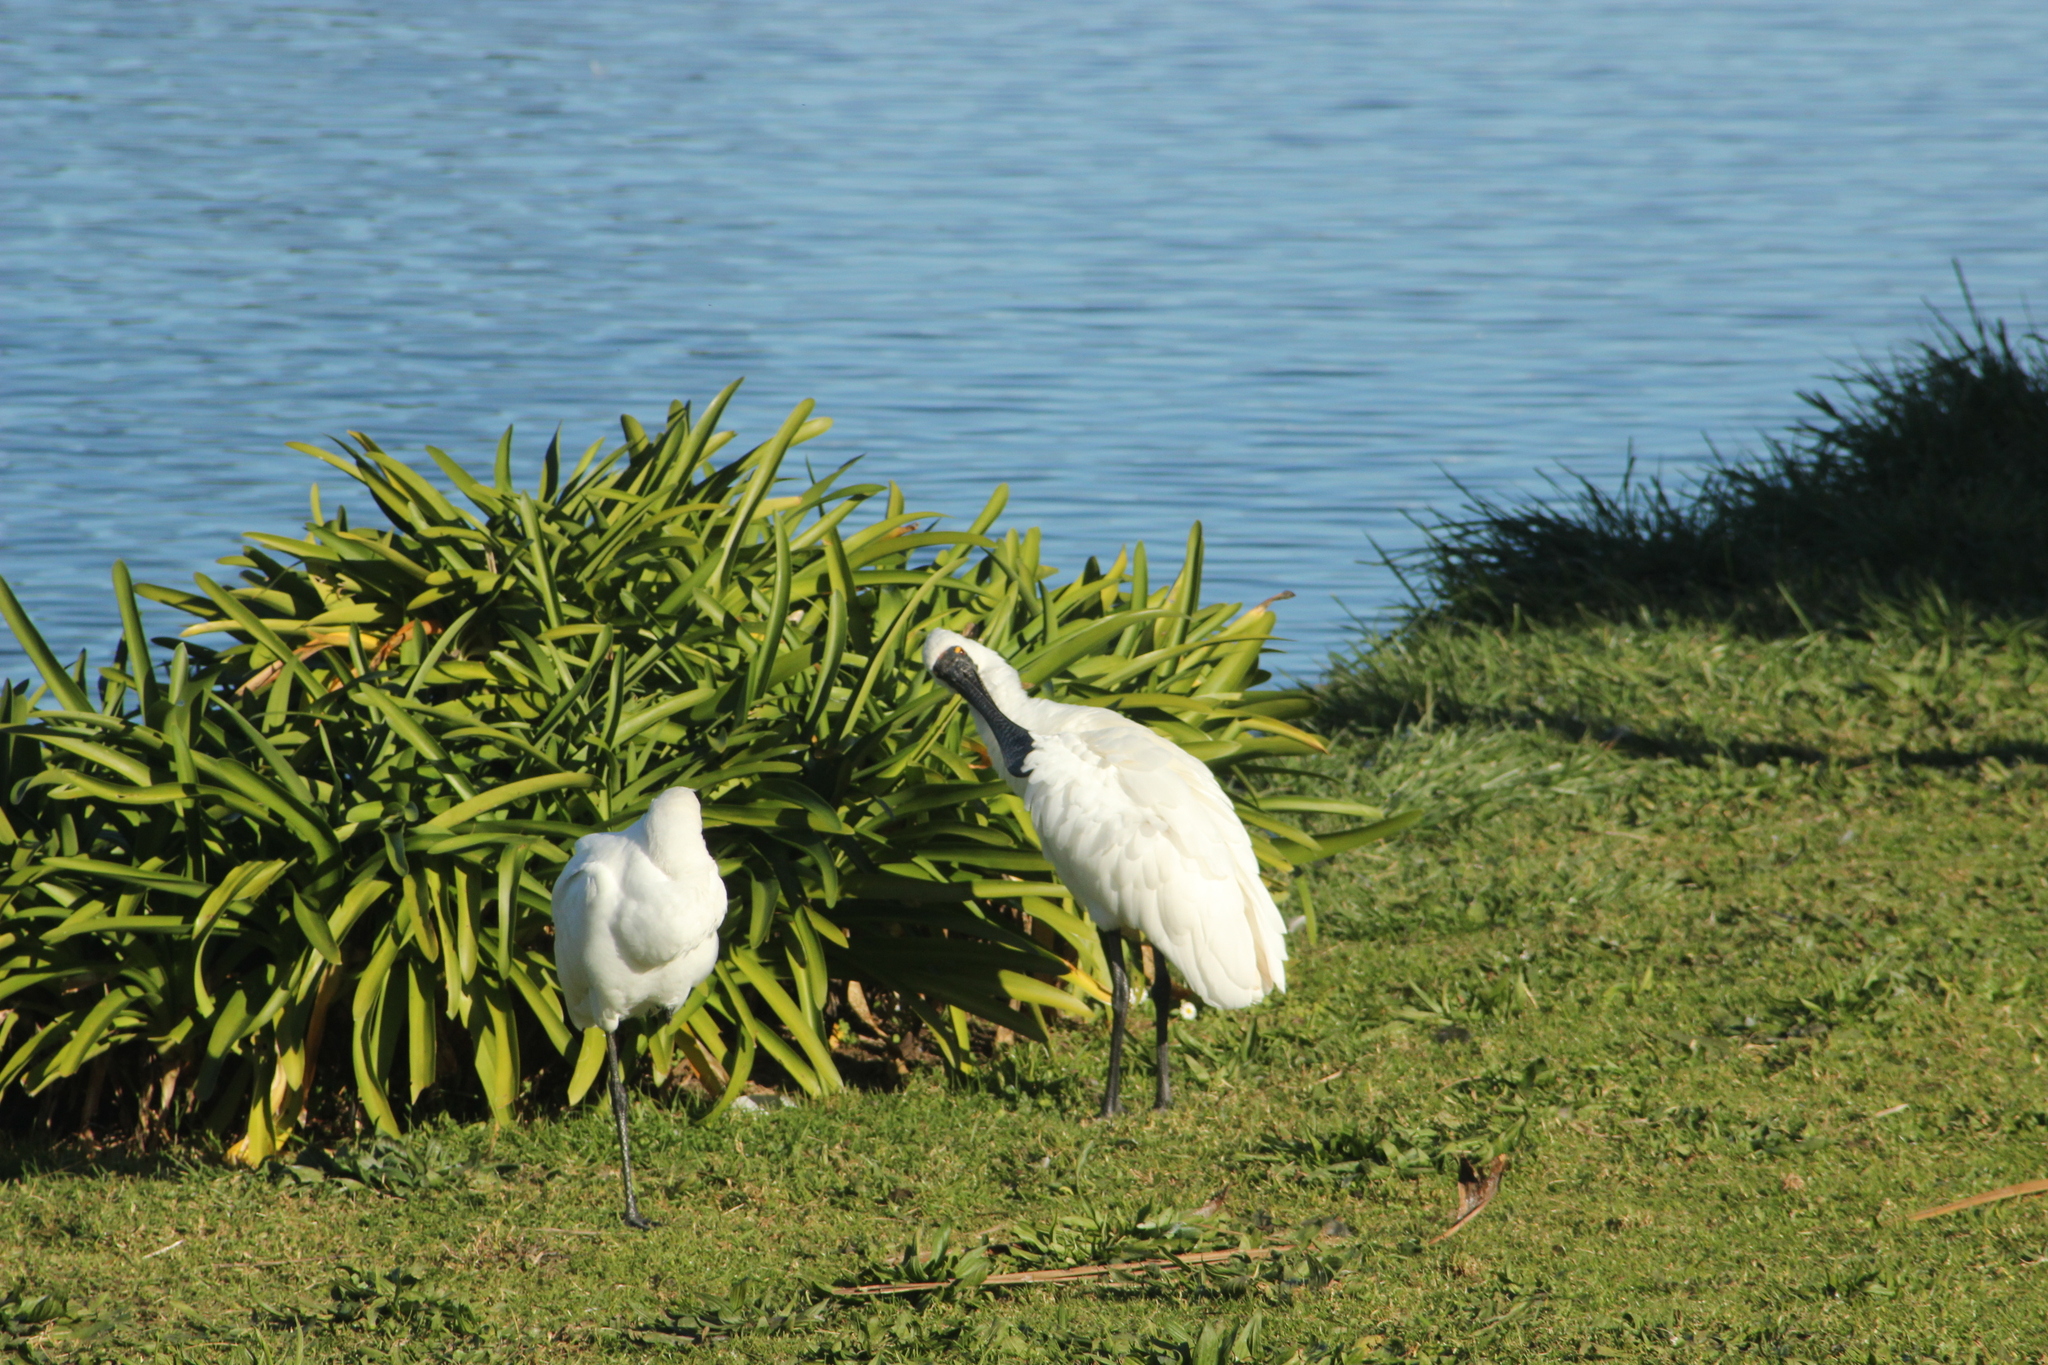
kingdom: Animalia
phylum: Chordata
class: Aves
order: Pelecaniformes
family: Threskiornithidae
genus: Platalea
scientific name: Platalea regia
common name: Royal spoonbill
